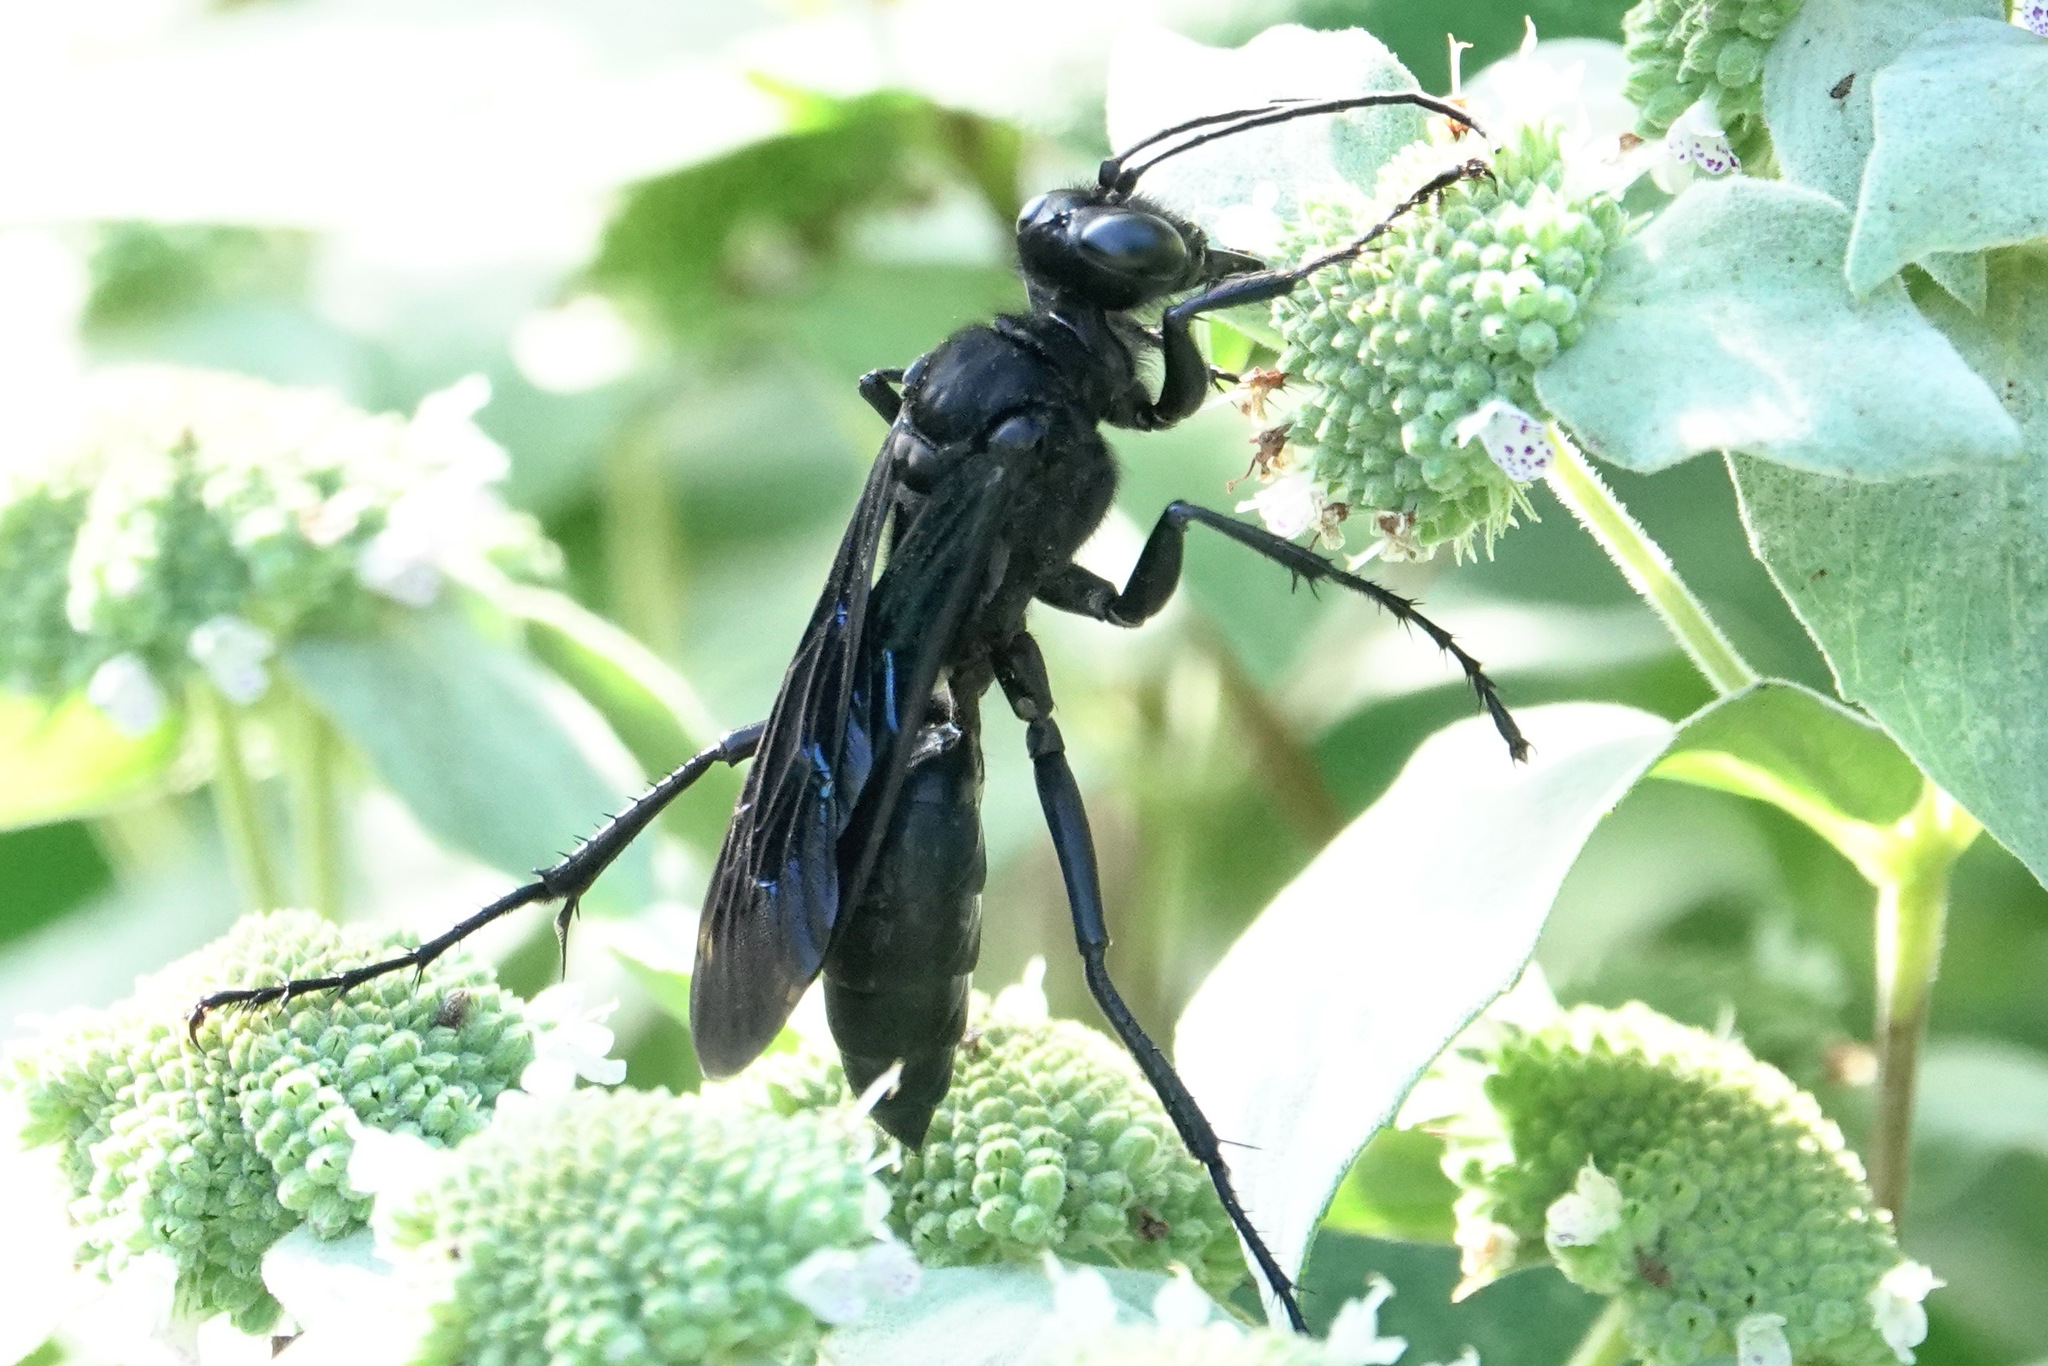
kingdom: Animalia
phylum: Arthropoda
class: Insecta
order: Hymenoptera
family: Sphecidae
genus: Sphex
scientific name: Sphex pensylvanicus
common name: Great black digger wasp
